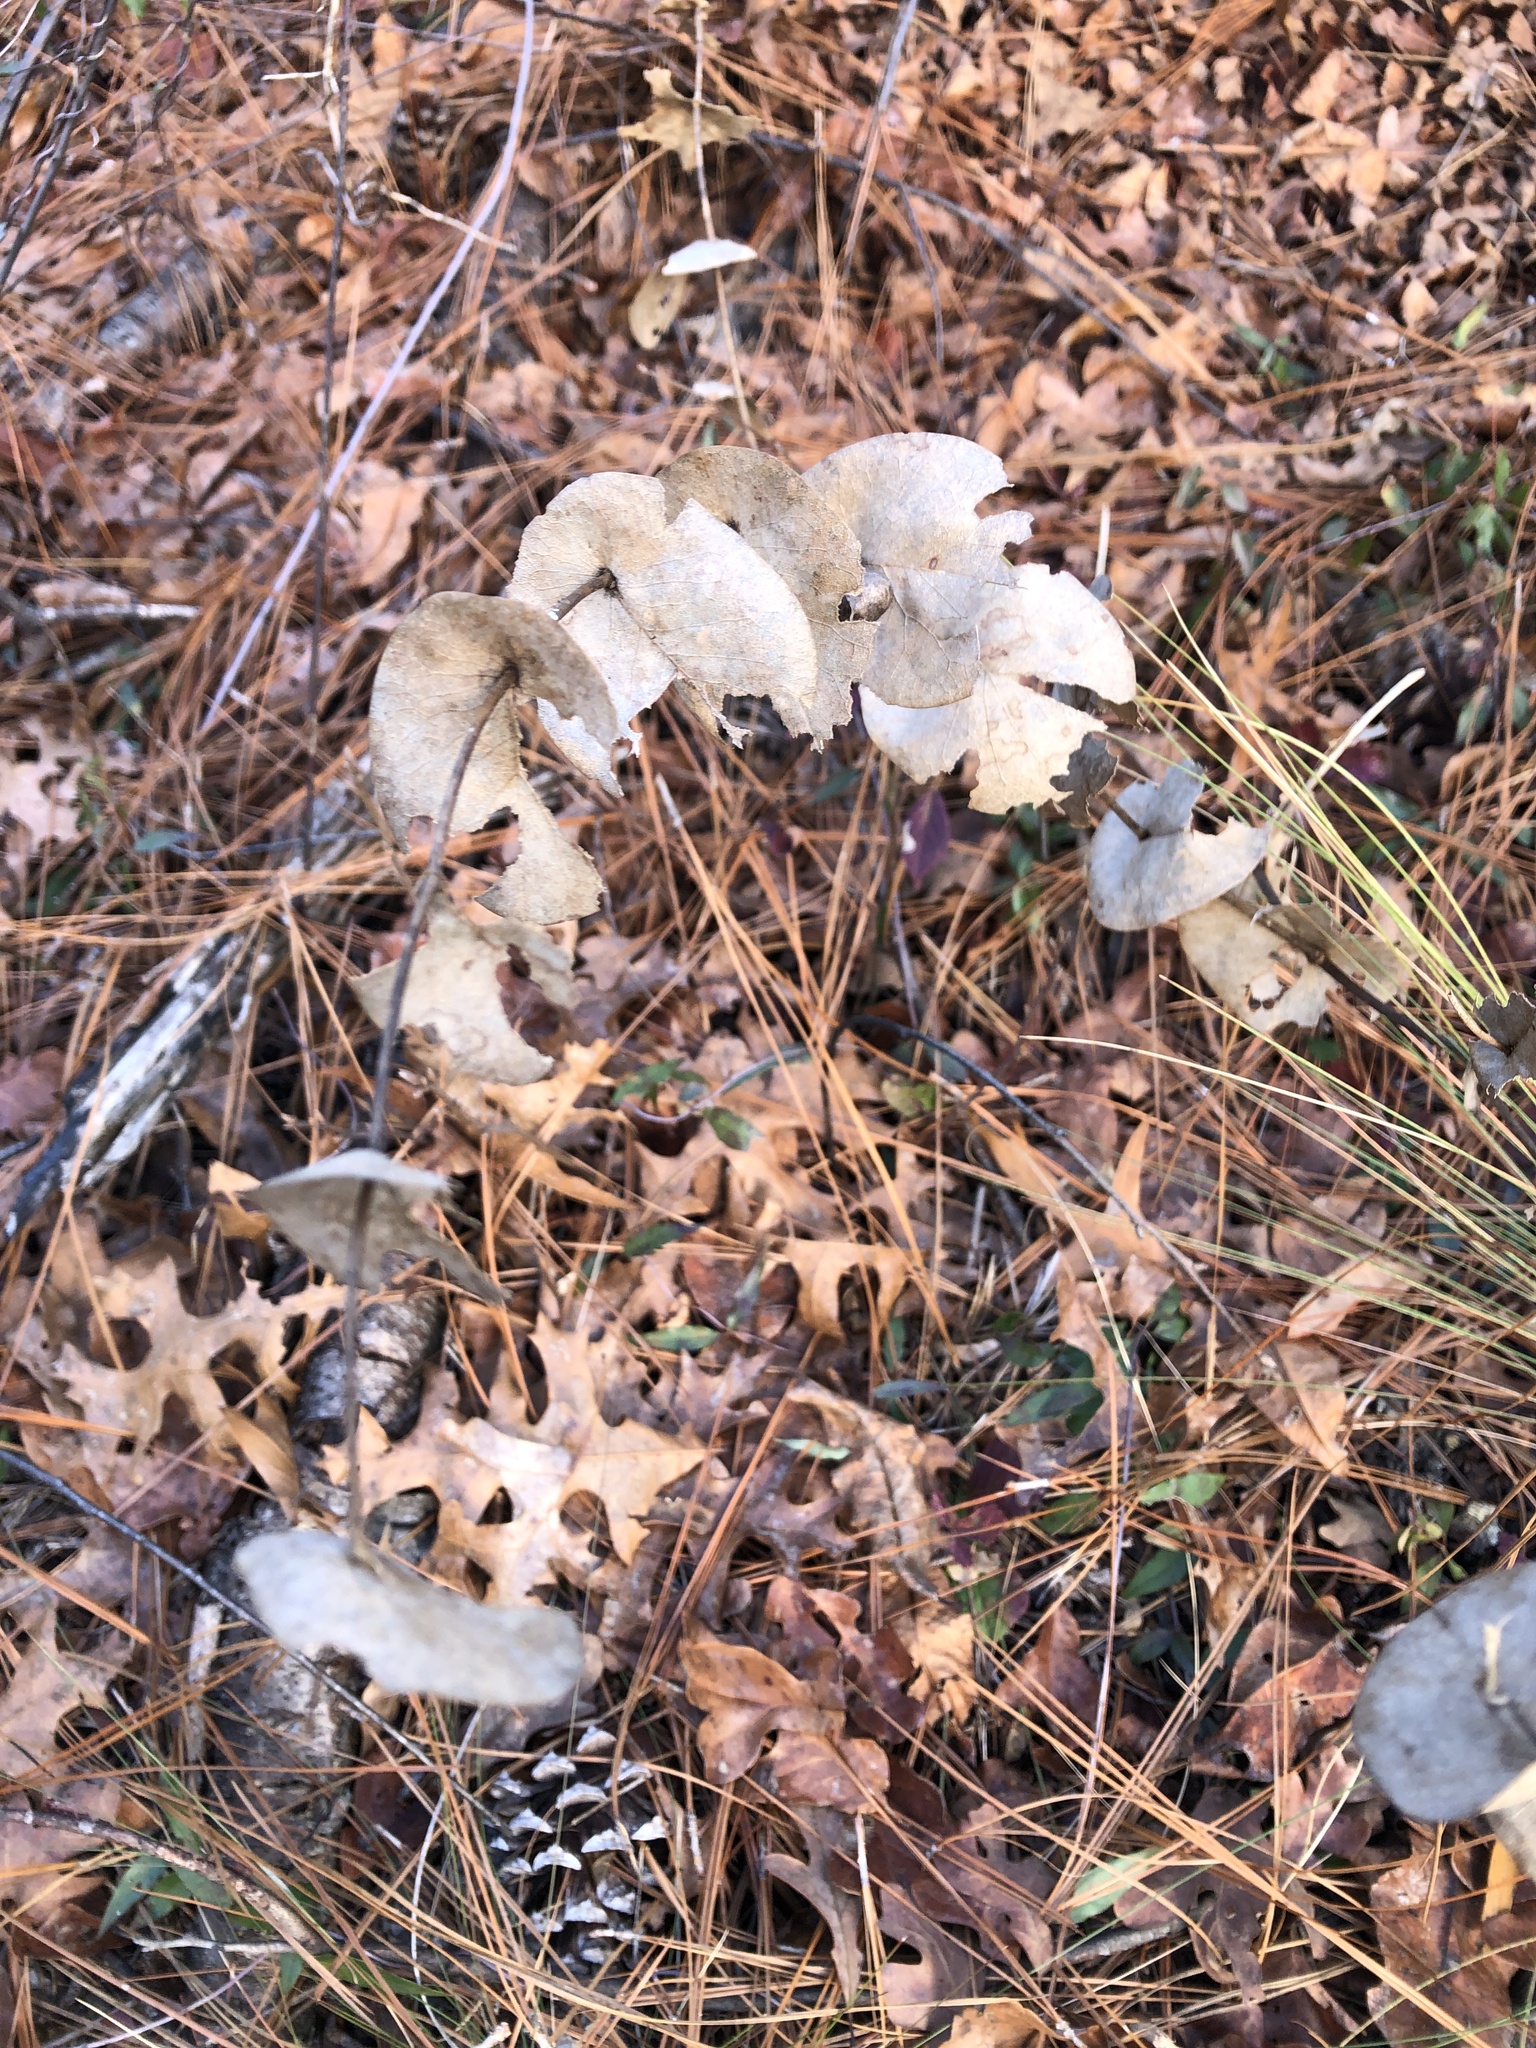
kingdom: Plantae
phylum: Tracheophyta
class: Magnoliopsida
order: Fabales
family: Fabaceae
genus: Baptisia
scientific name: Baptisia perfoliata
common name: Catbells
